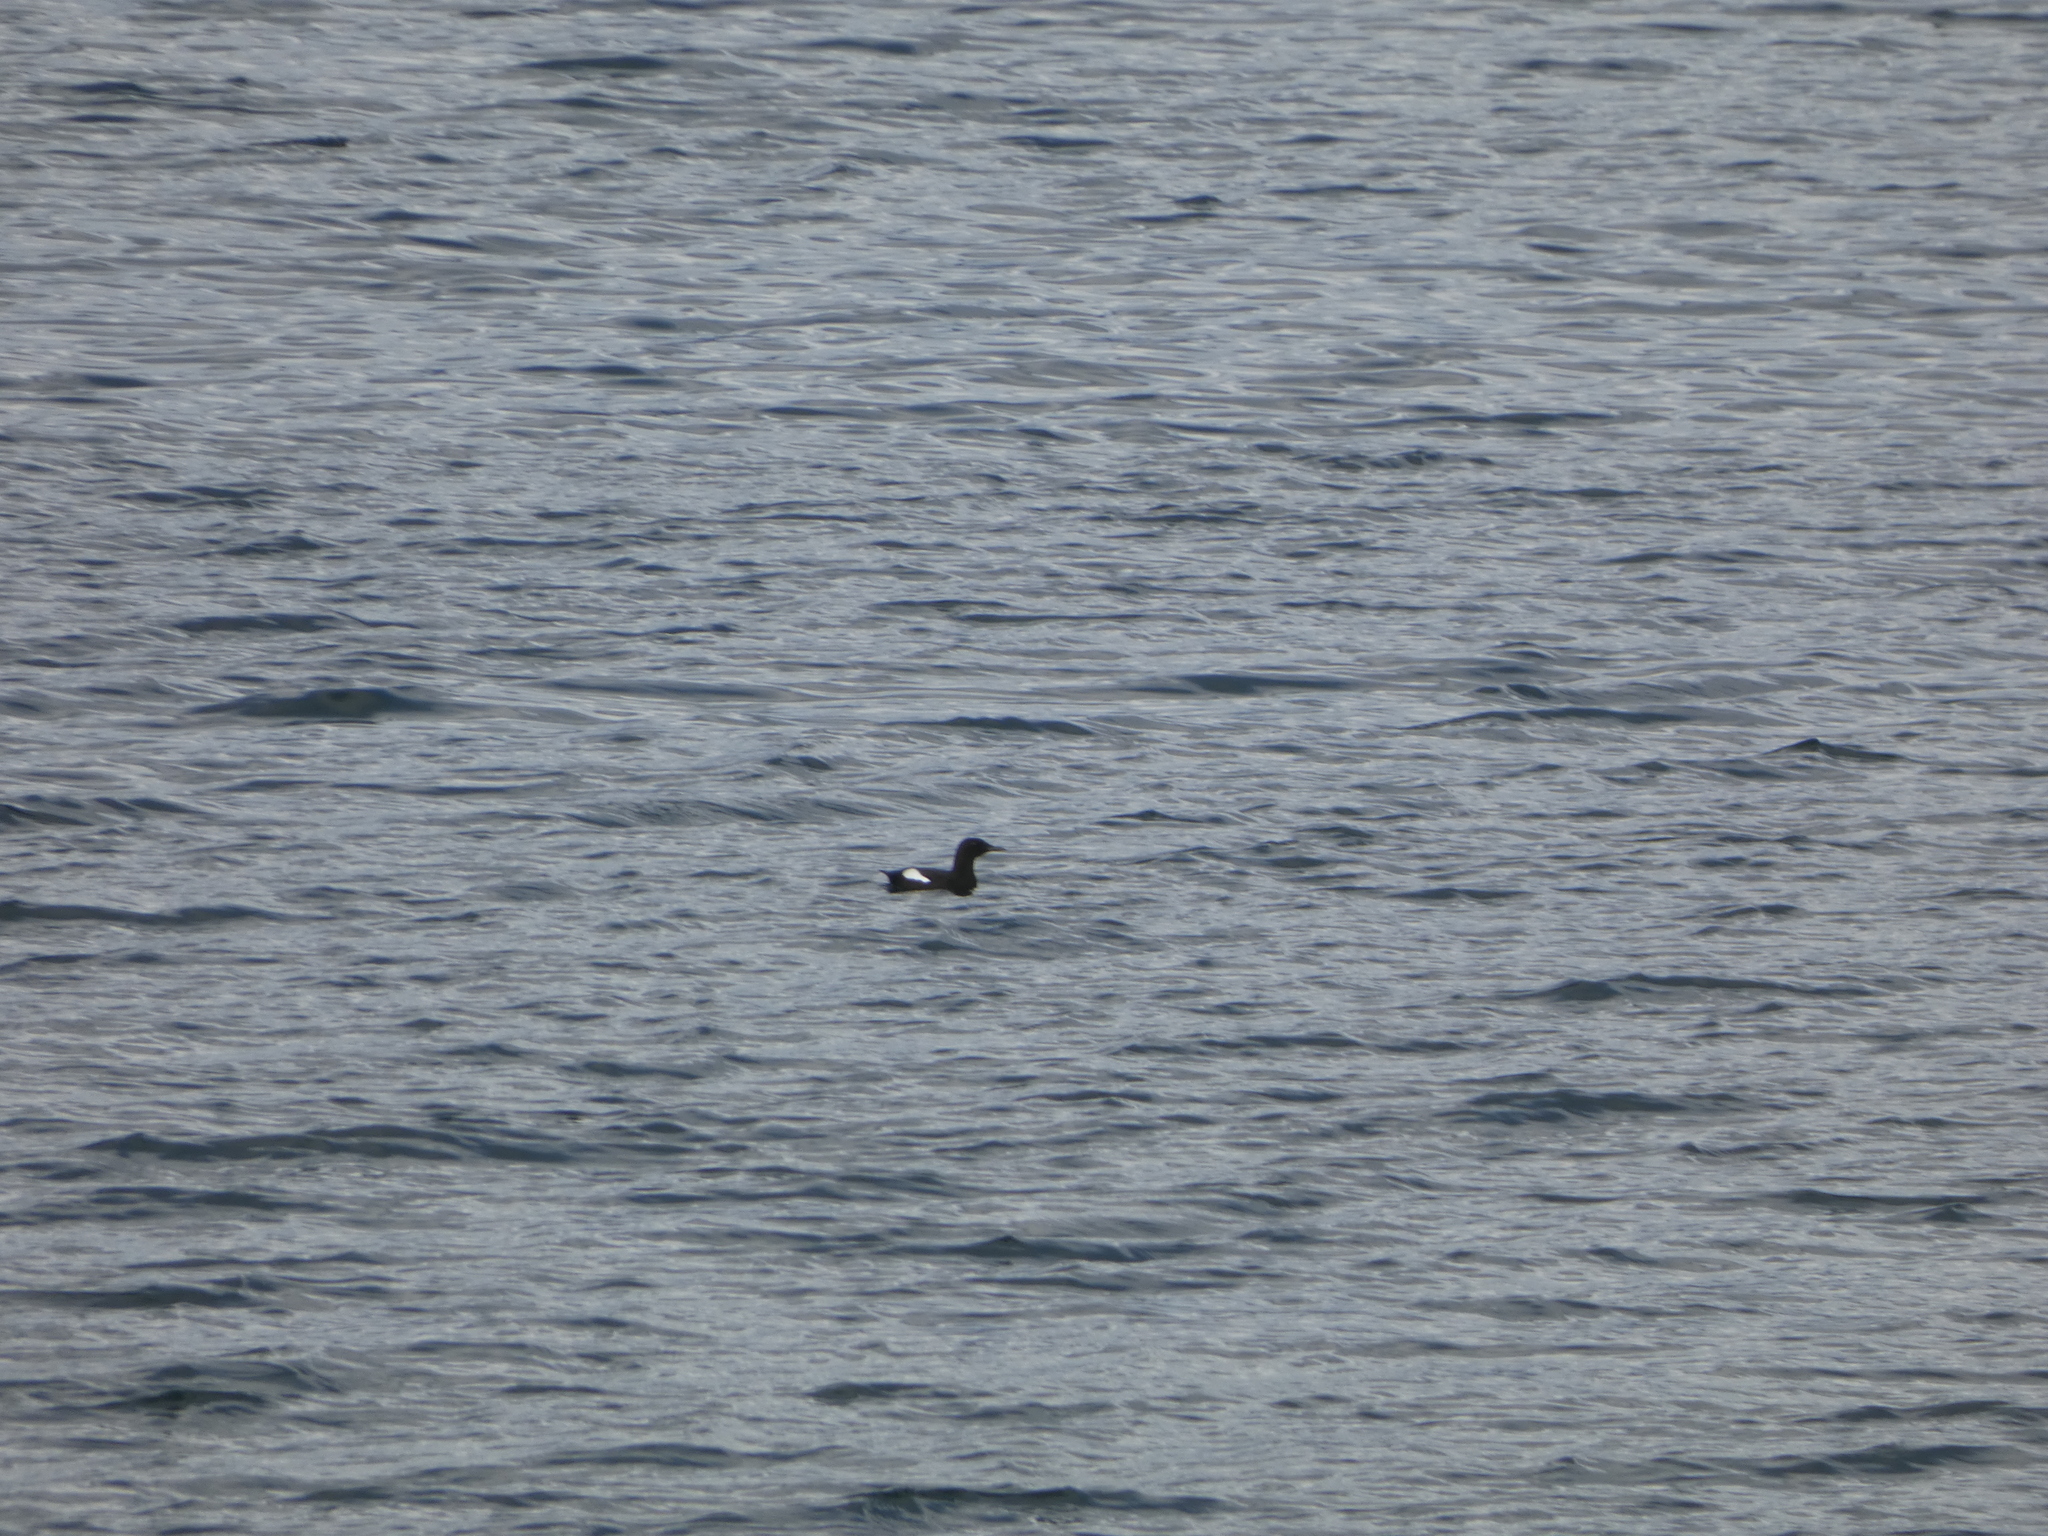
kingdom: Animalia
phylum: Chordata
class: Aves
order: Charadriiformes
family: Alcidae
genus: Cepphus
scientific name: Cepphus grylle
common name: Black guillemot
